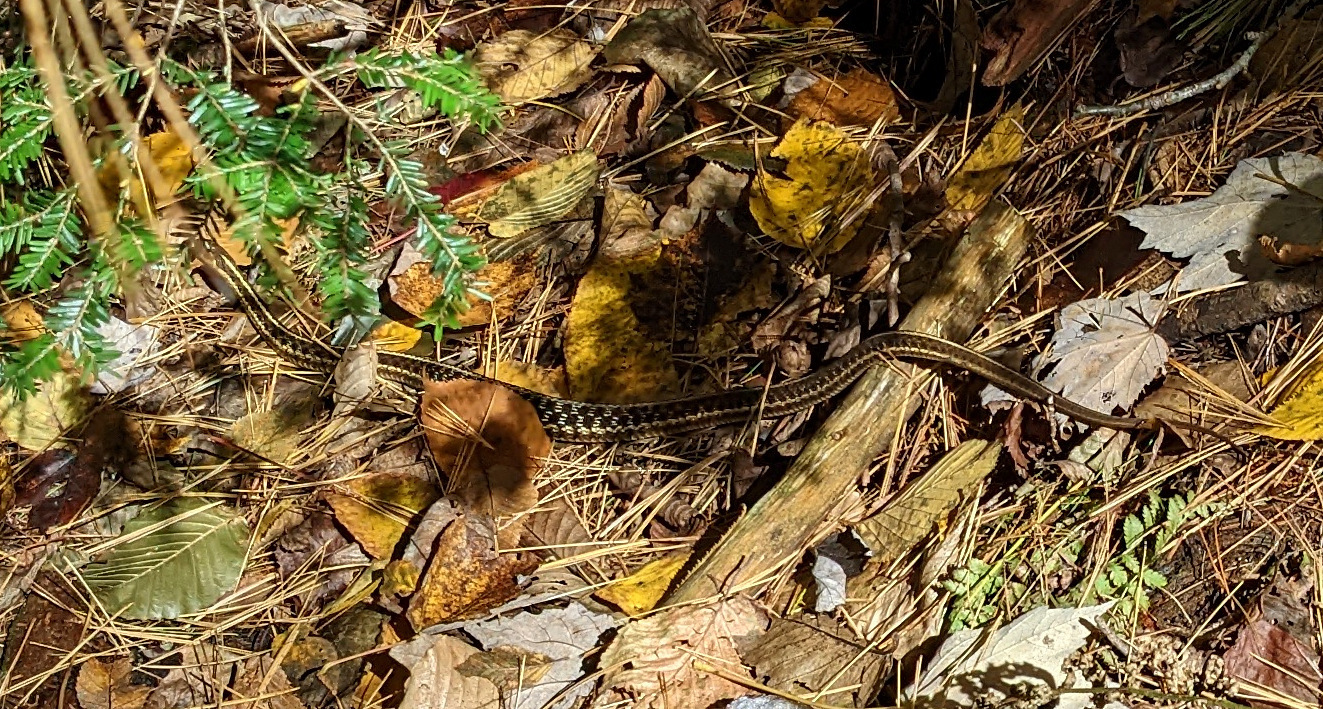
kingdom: Animalia
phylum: Chordata
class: Squamata
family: Colubridae
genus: Thamnophis
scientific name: Thamnophis sirtalis
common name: Common garter snake
